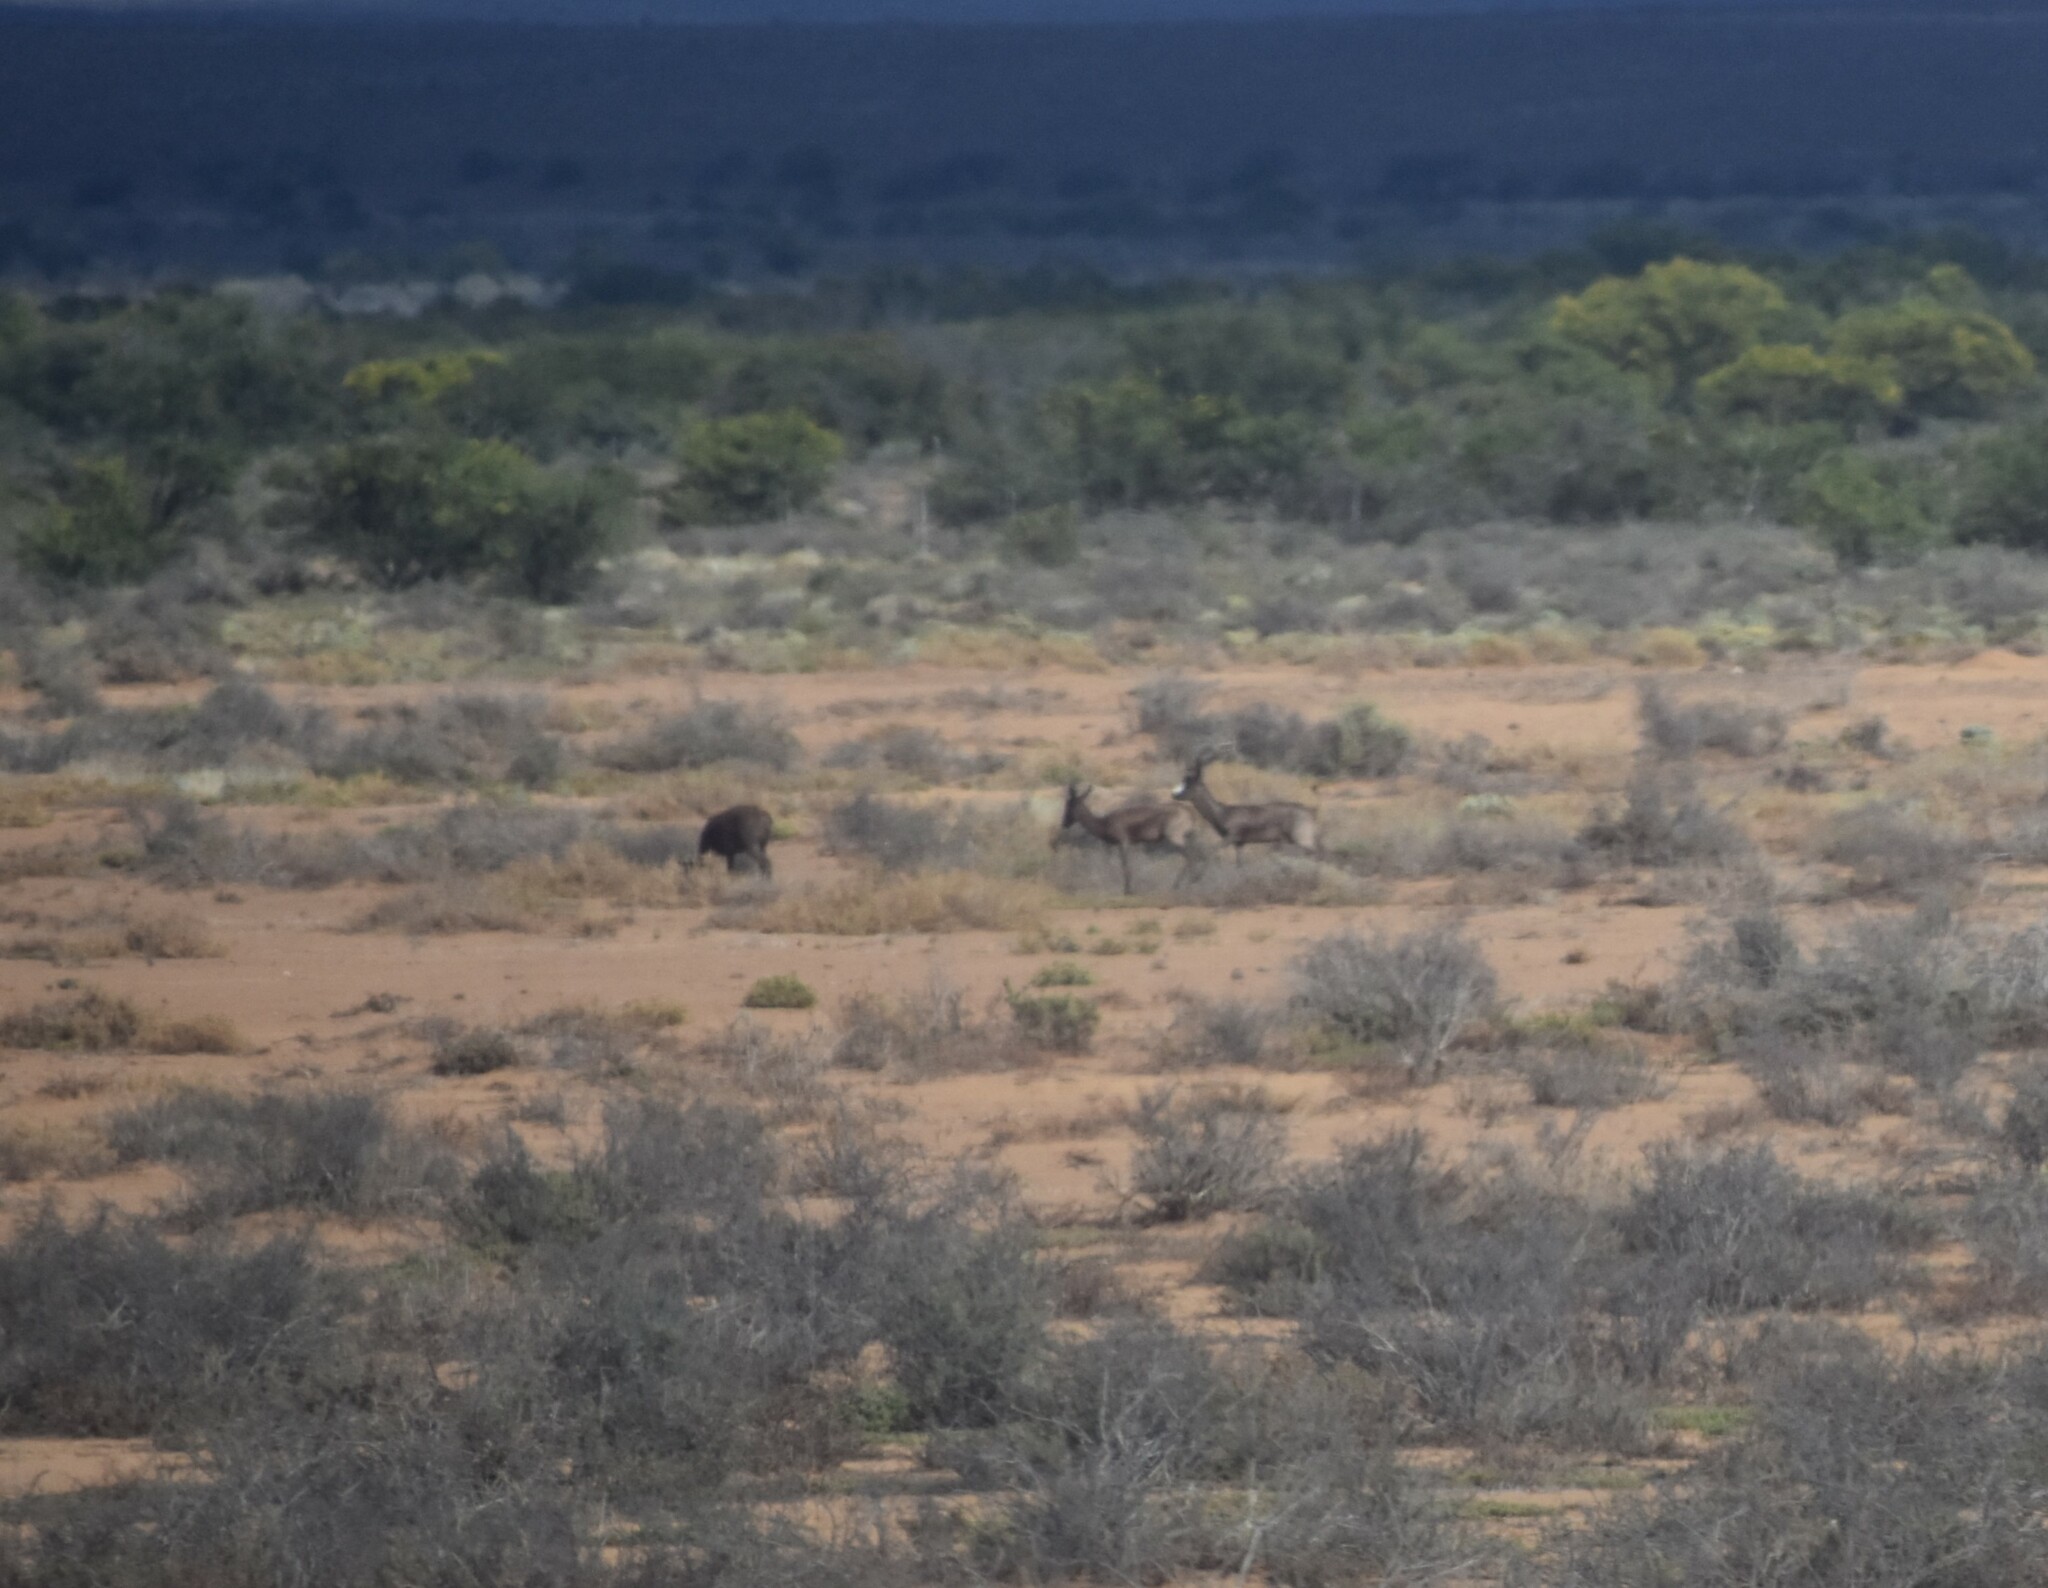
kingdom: Animalia
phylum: Chordata
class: Mammalia
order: Artiodactyla
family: Bovidae
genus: Antidorcas
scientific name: Antidorcas marsupialis
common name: Springbok
